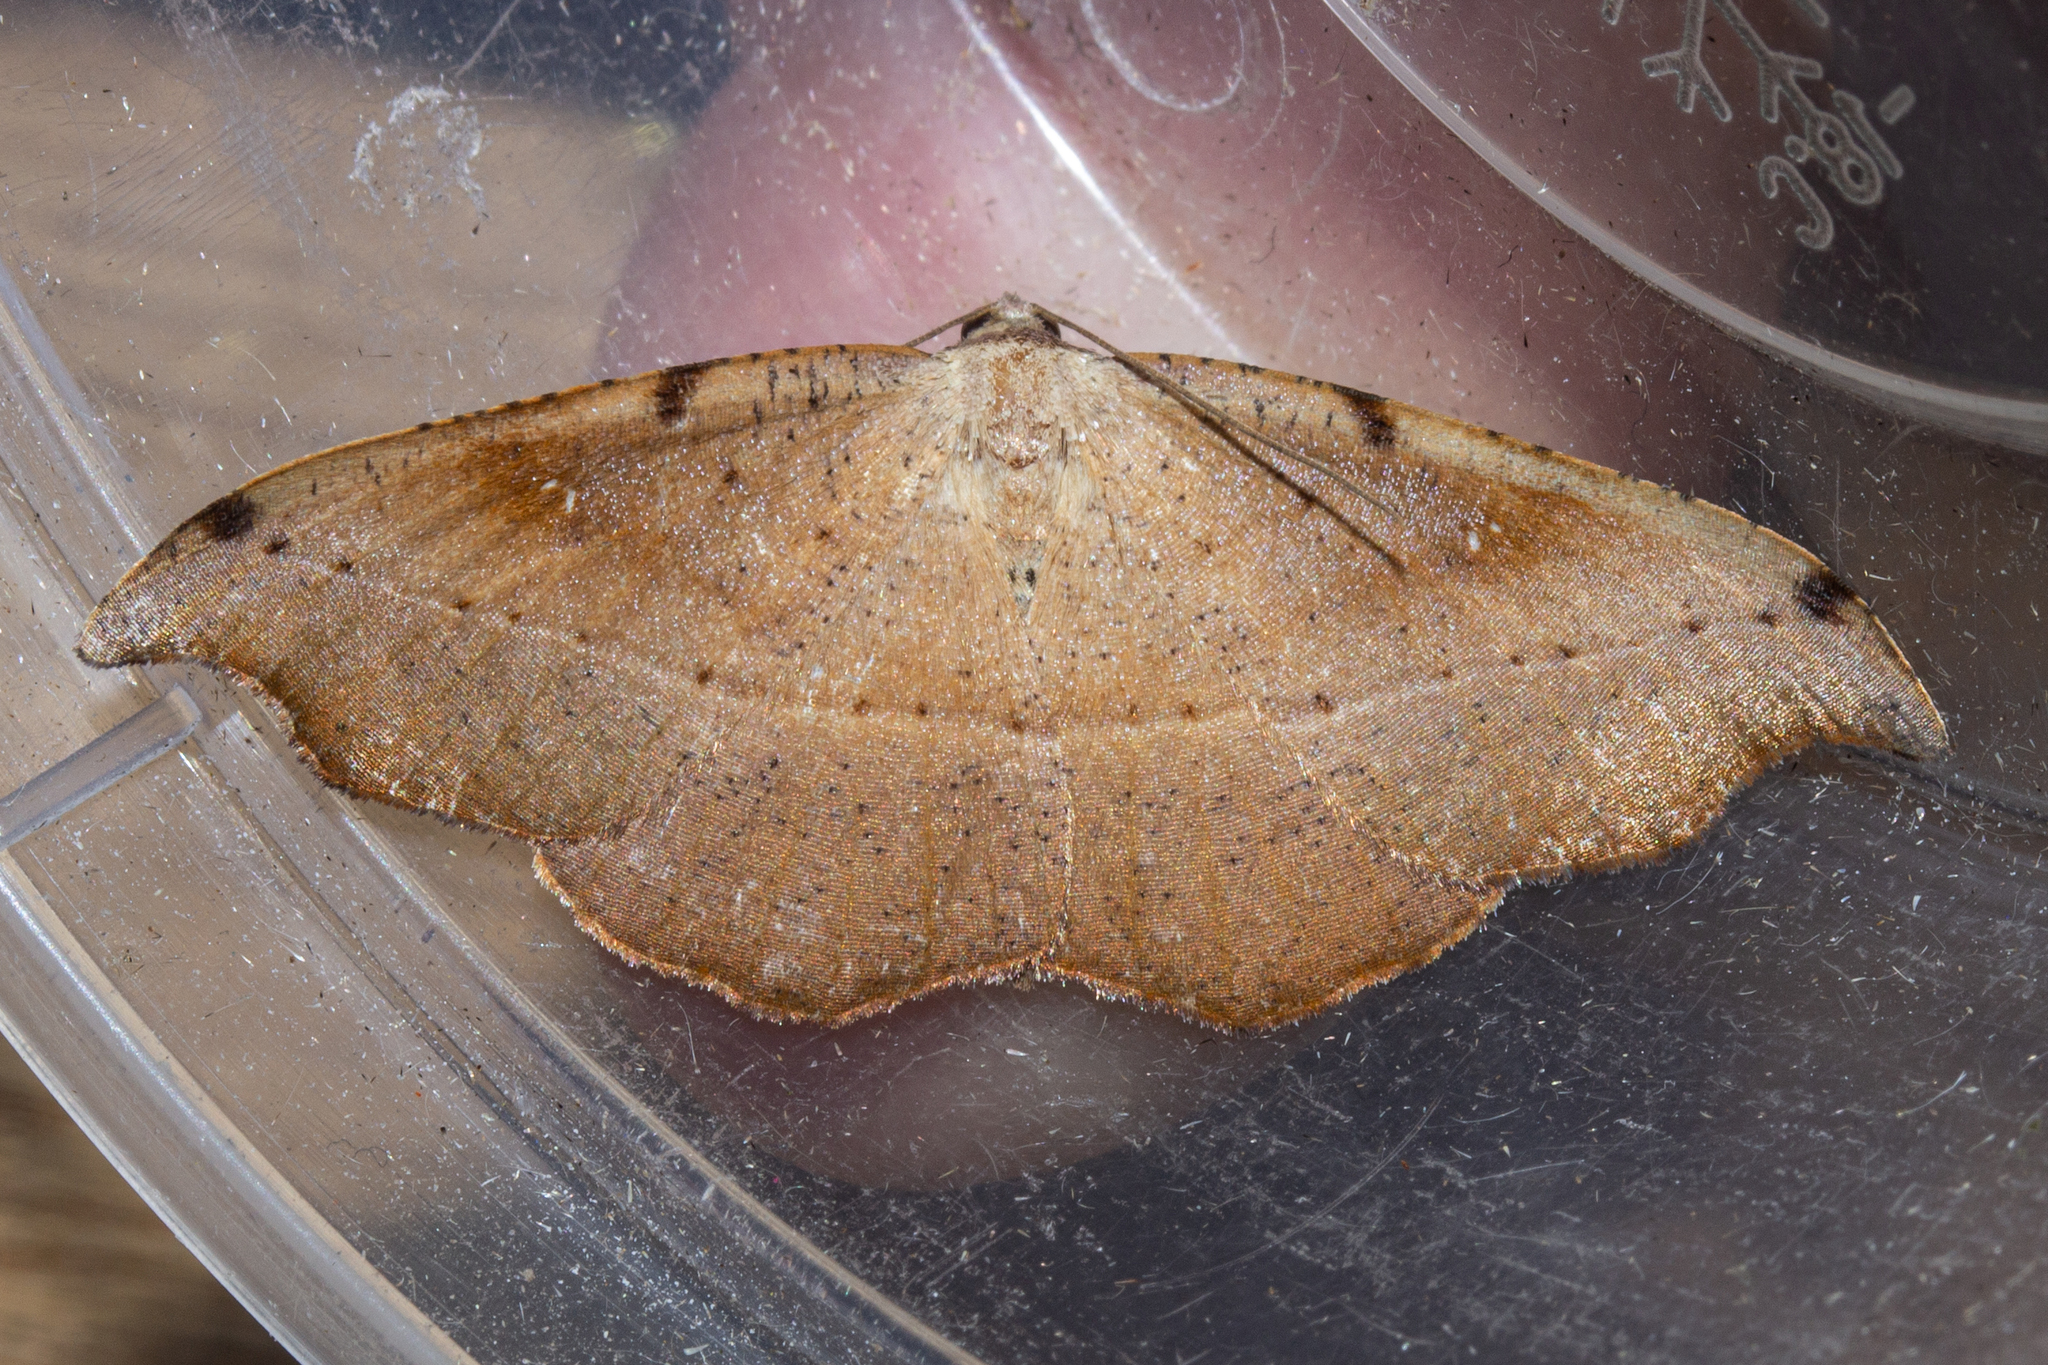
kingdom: Animalia
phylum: Arthropoda
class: Insecta
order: Lepidoptera
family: Geometridae
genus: Sarisa
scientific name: Sarisa muriferata
